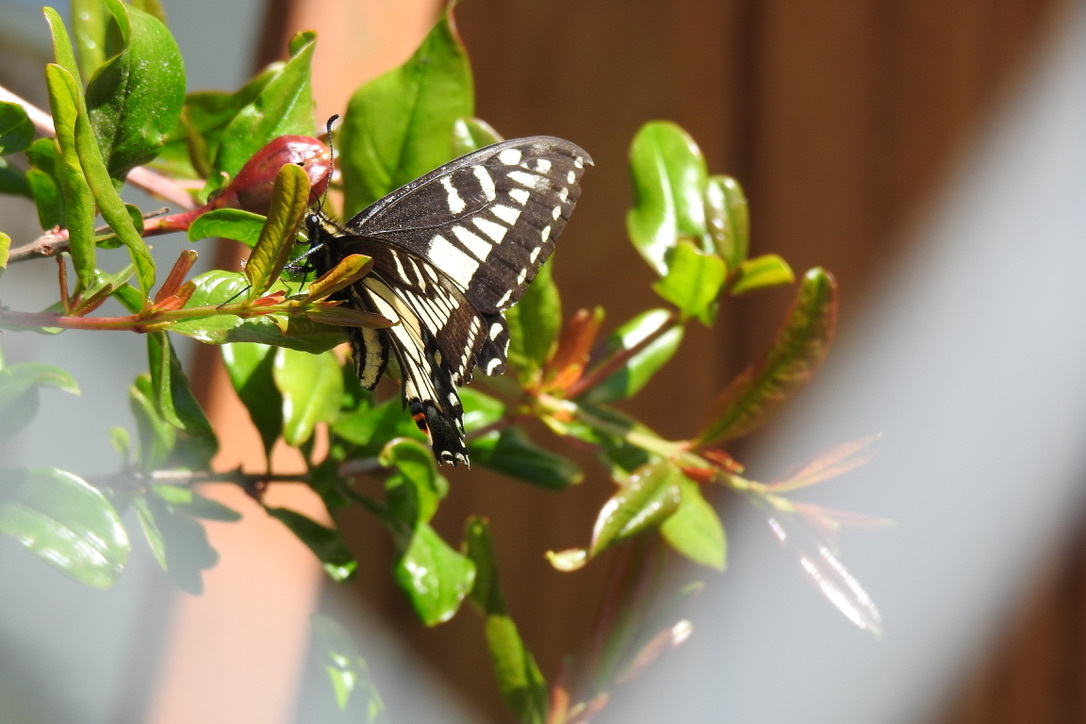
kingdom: Animalia
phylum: Arthropoda
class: Insecta
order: Lepidoptera
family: Papilionidae
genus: Papilio
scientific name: Papilio zelicaon
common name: Anise swallowtail
